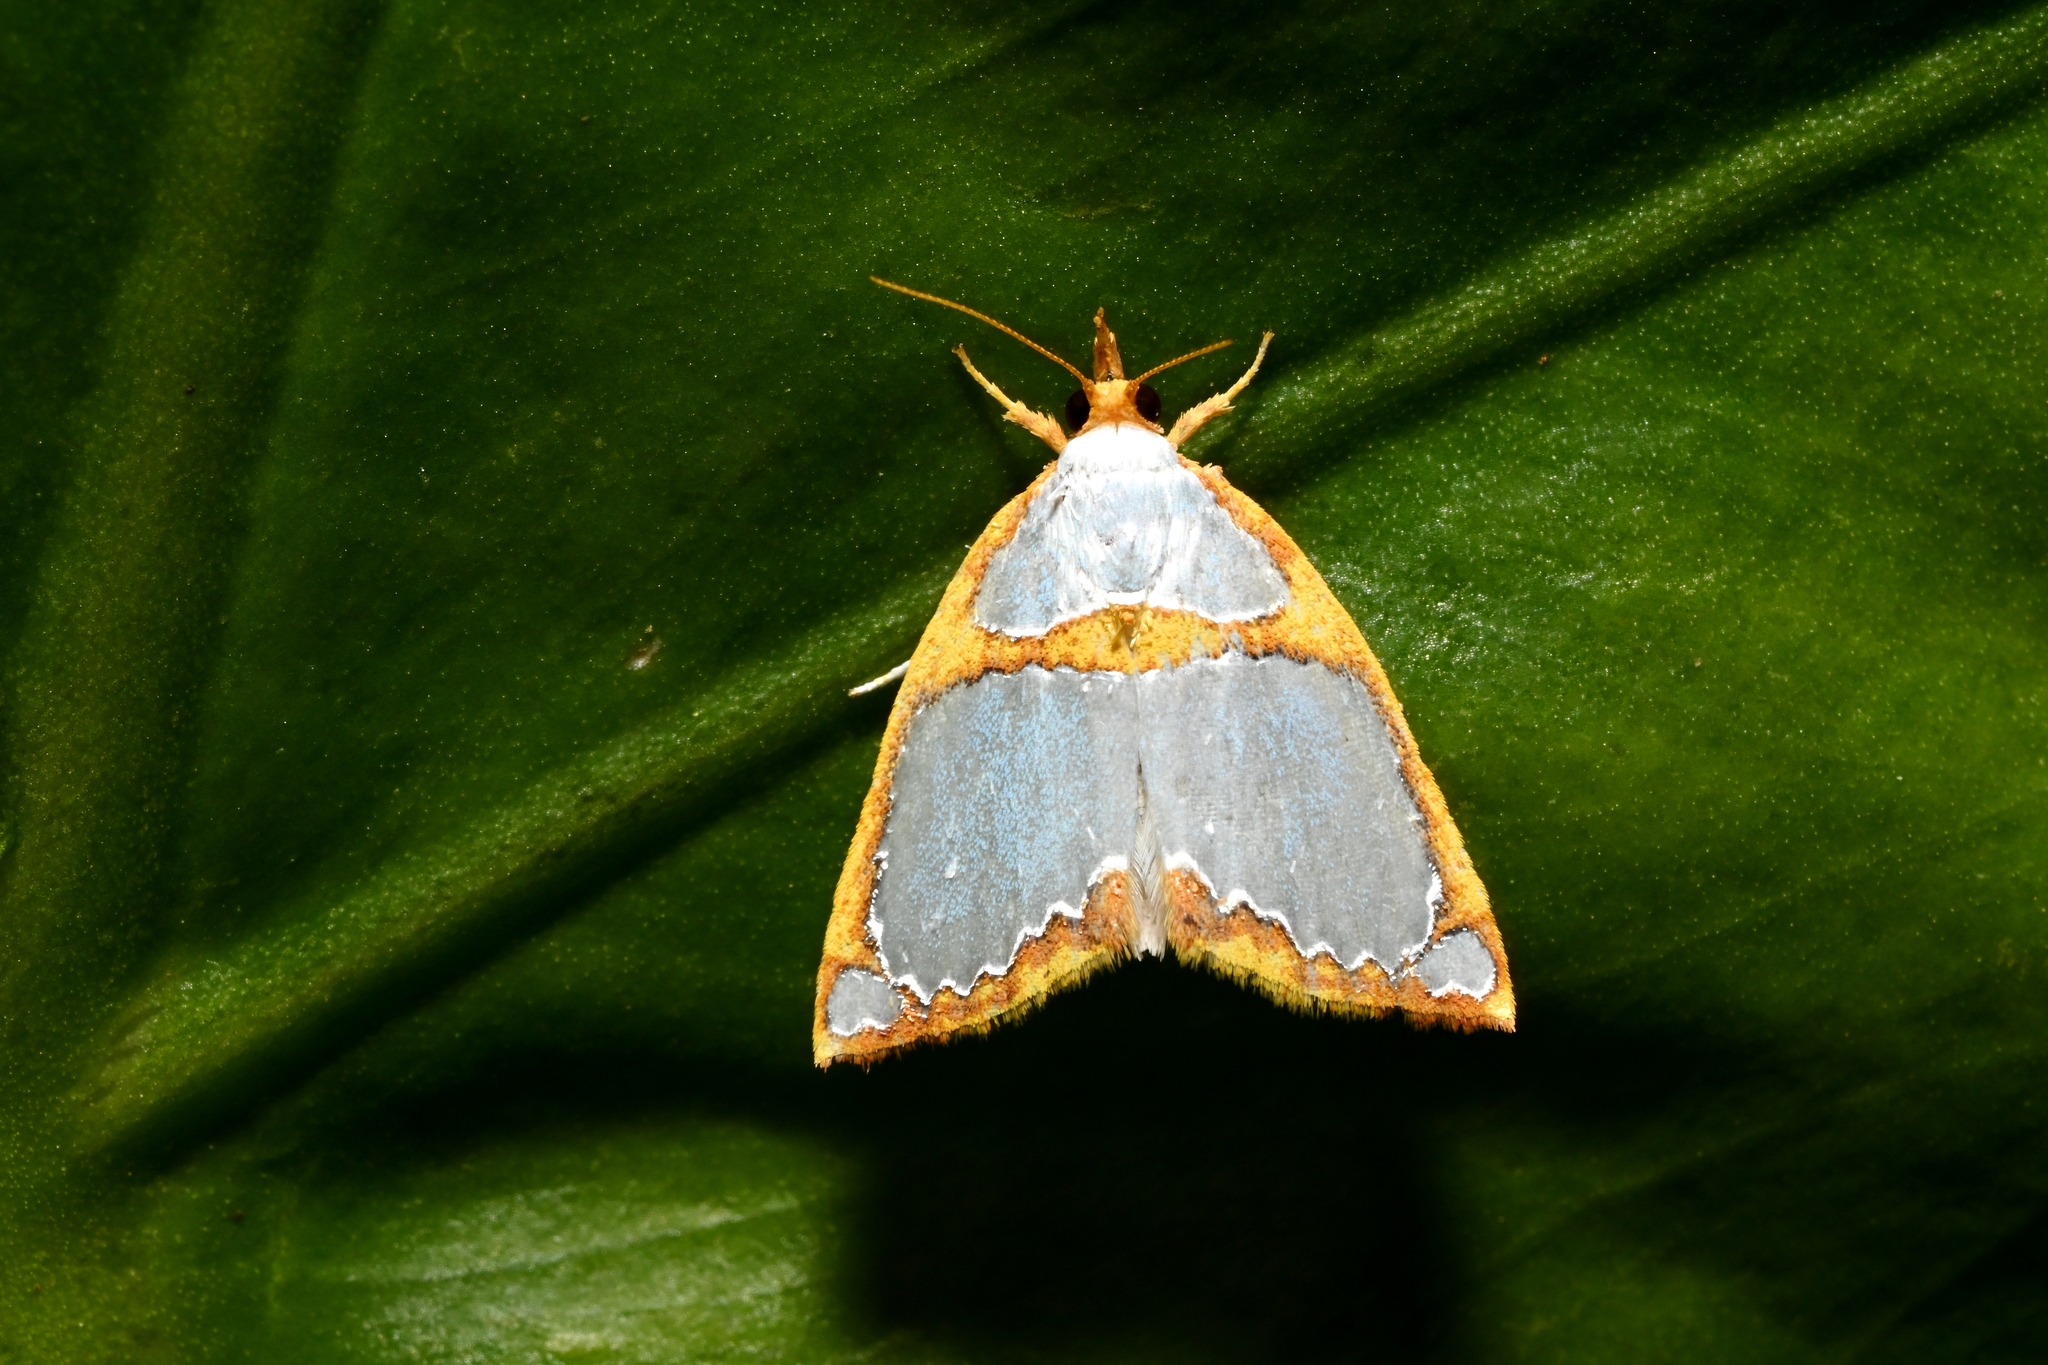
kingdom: Animalia
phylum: Arthropoda
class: Insecta
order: Lepidoptera
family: Nolidae
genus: Titulcia
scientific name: Titulcia confictella
